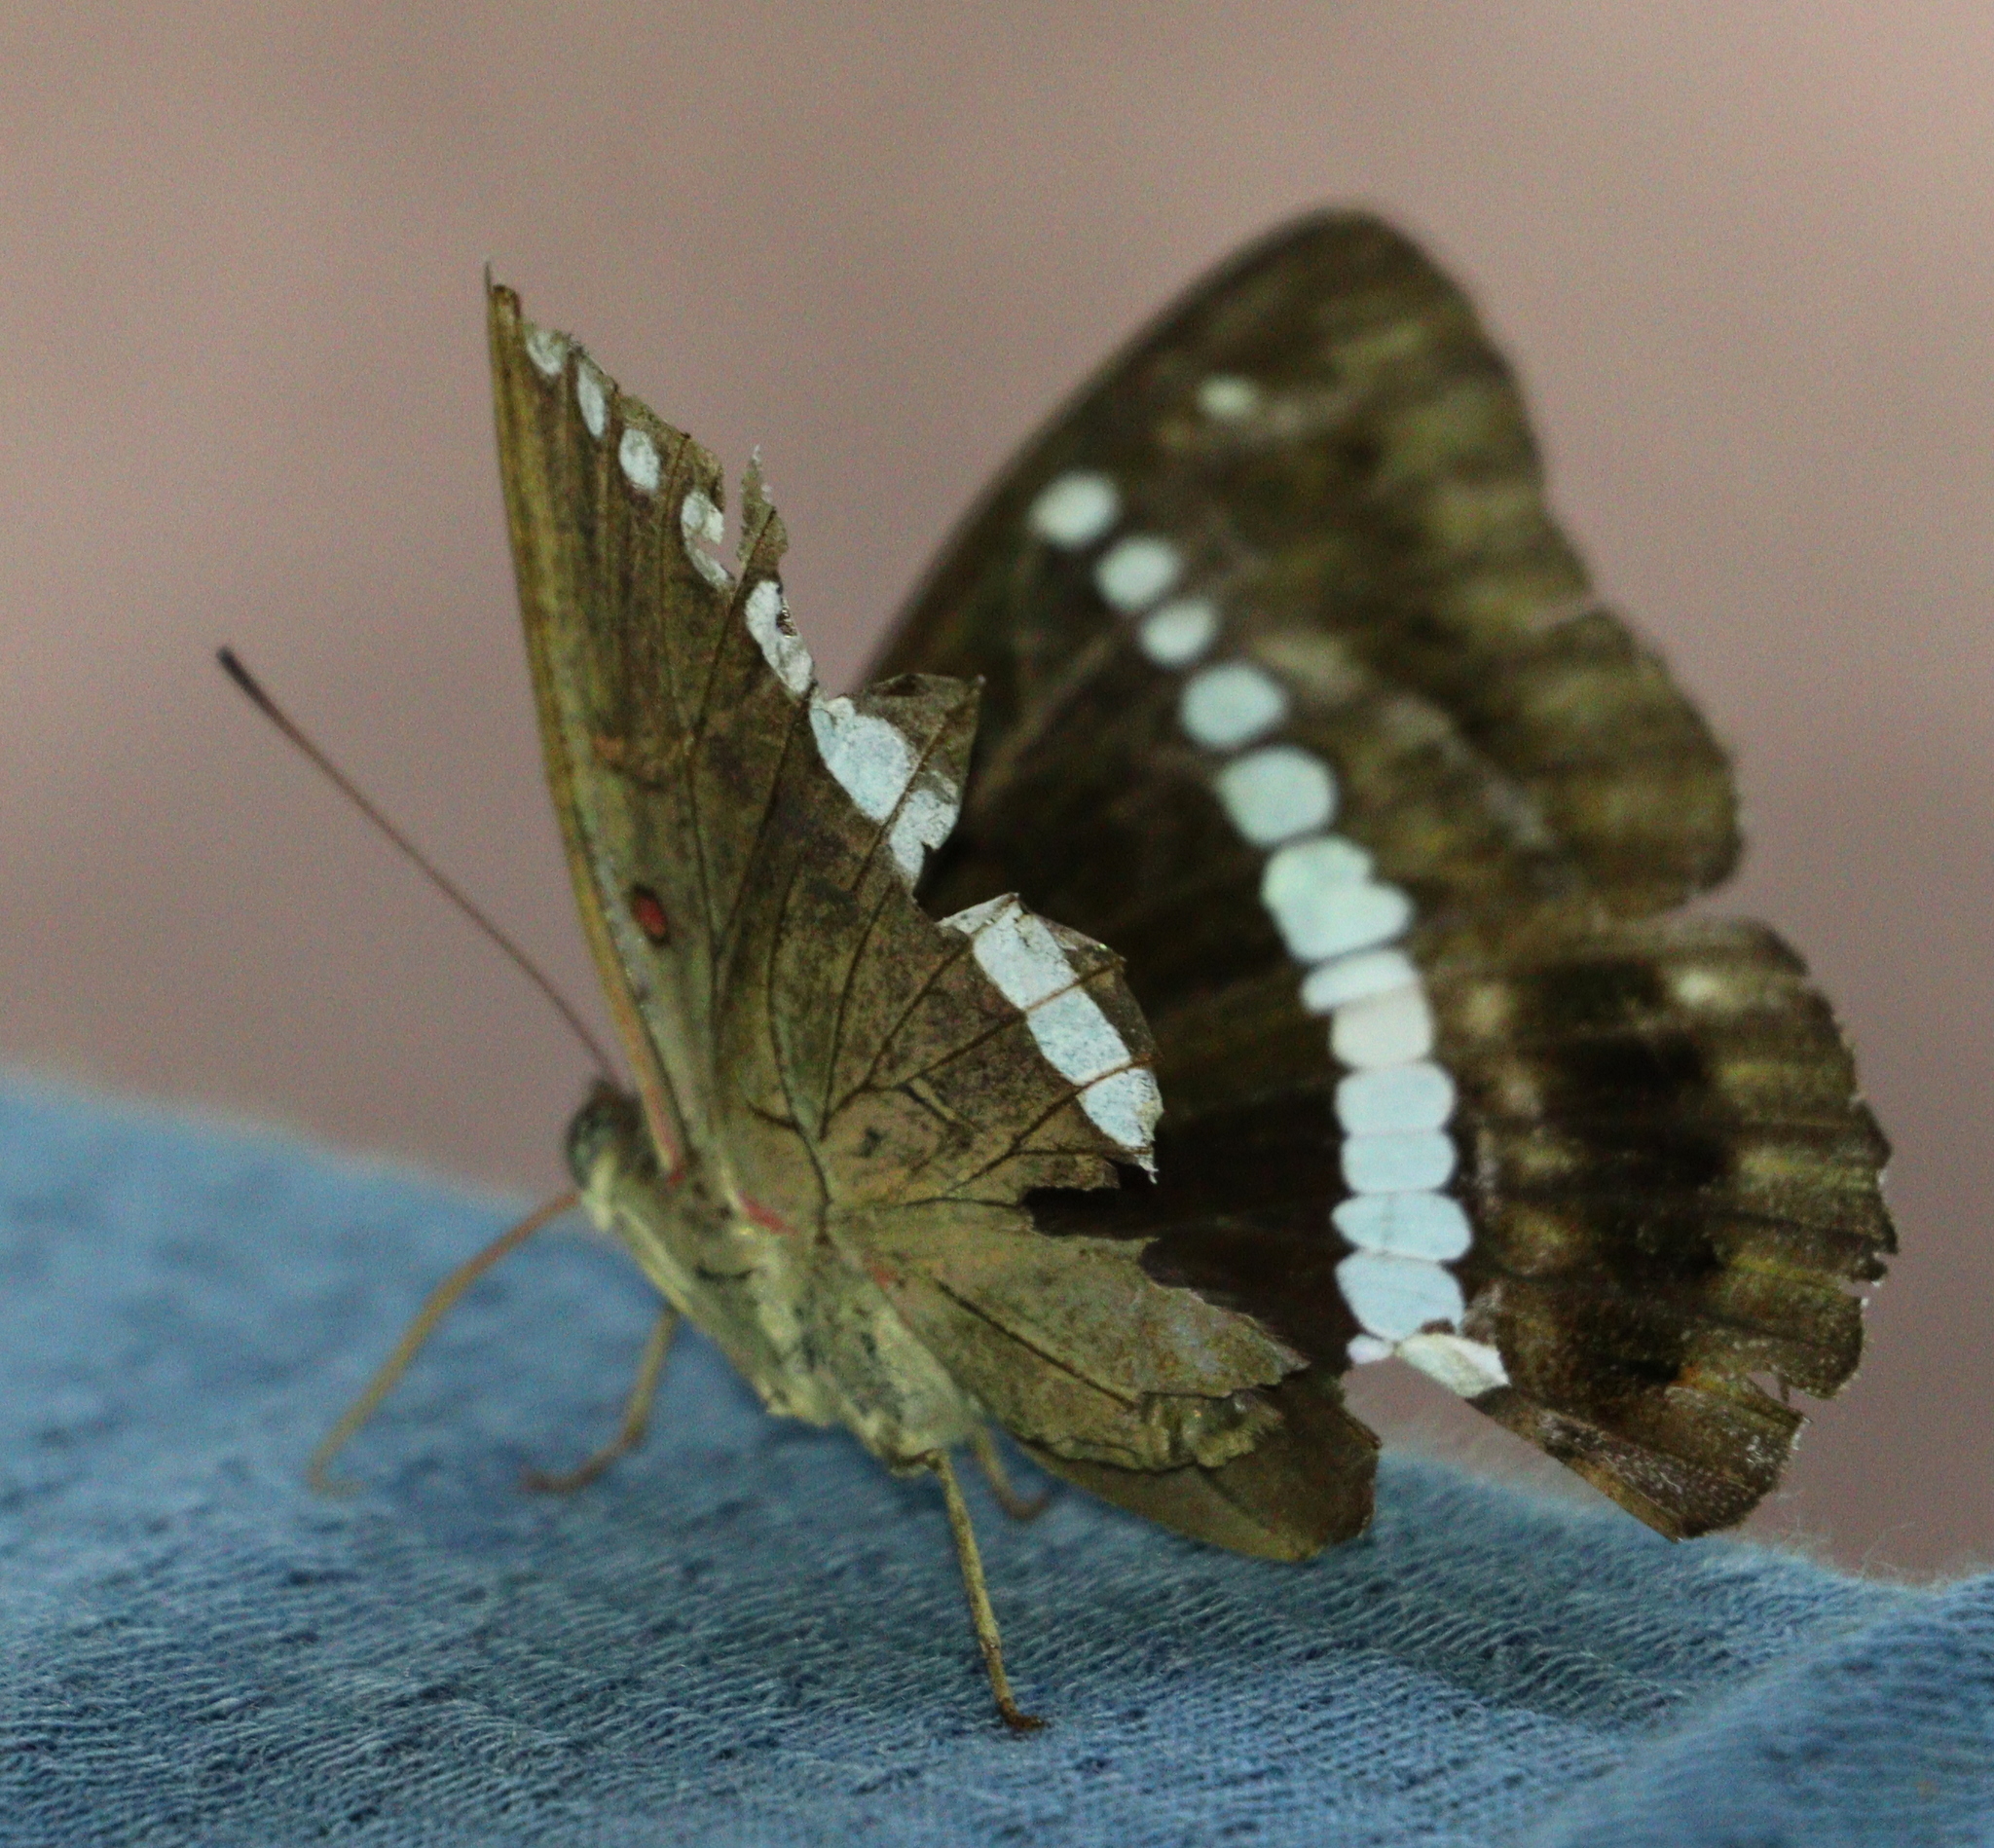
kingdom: Animalia
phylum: Arthropoda
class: Insecta
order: Lepidoptera
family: Nymphalidae
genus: Euthalia
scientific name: Euthalia recta
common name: Redtail marquis
